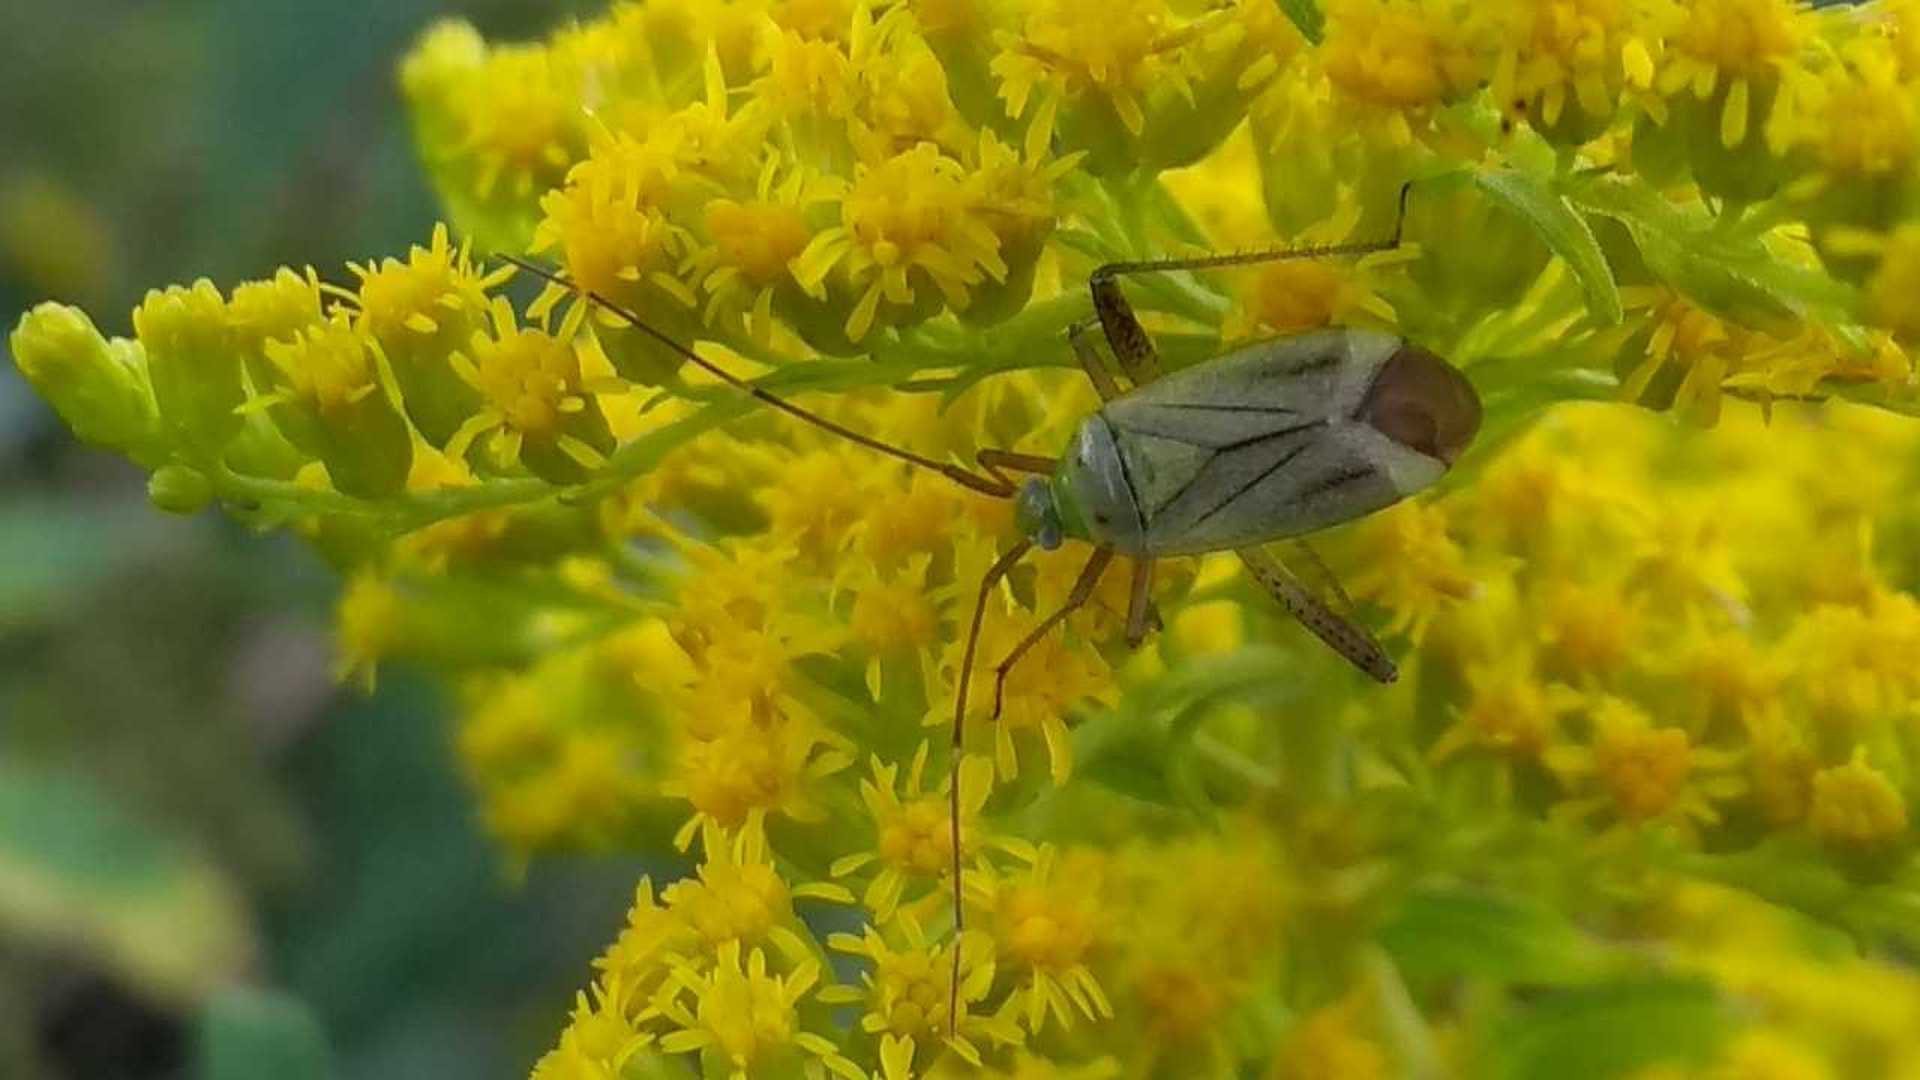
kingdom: Animalia
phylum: Arthropoda
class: Insecta
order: Hemiptera
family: Miridae
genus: Adelphocoris
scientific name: Adelphocoris quadripunctatus
